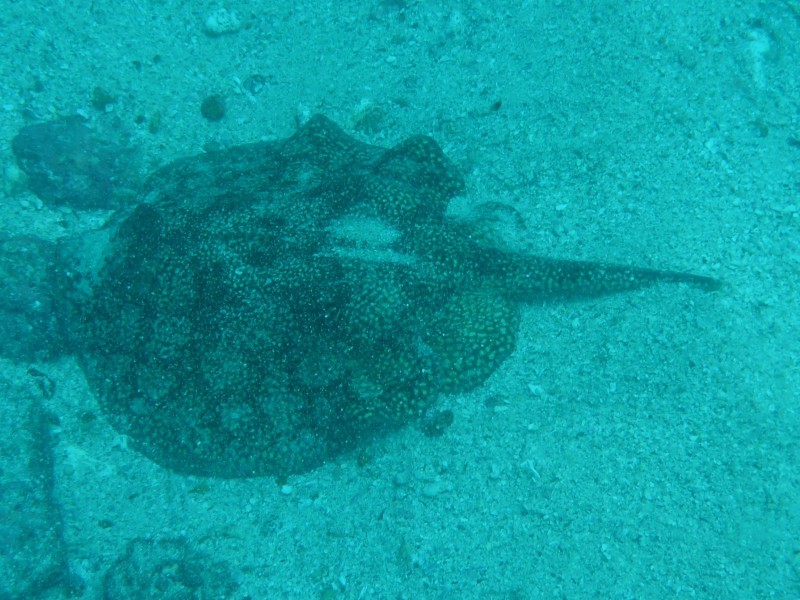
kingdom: Animalia
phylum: Chordata
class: Elasmobranchii
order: Myliobatiformes
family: Urotrygonidae
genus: Urobatis
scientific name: Urobatis tumbesensis
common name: Tumbes round stingray
